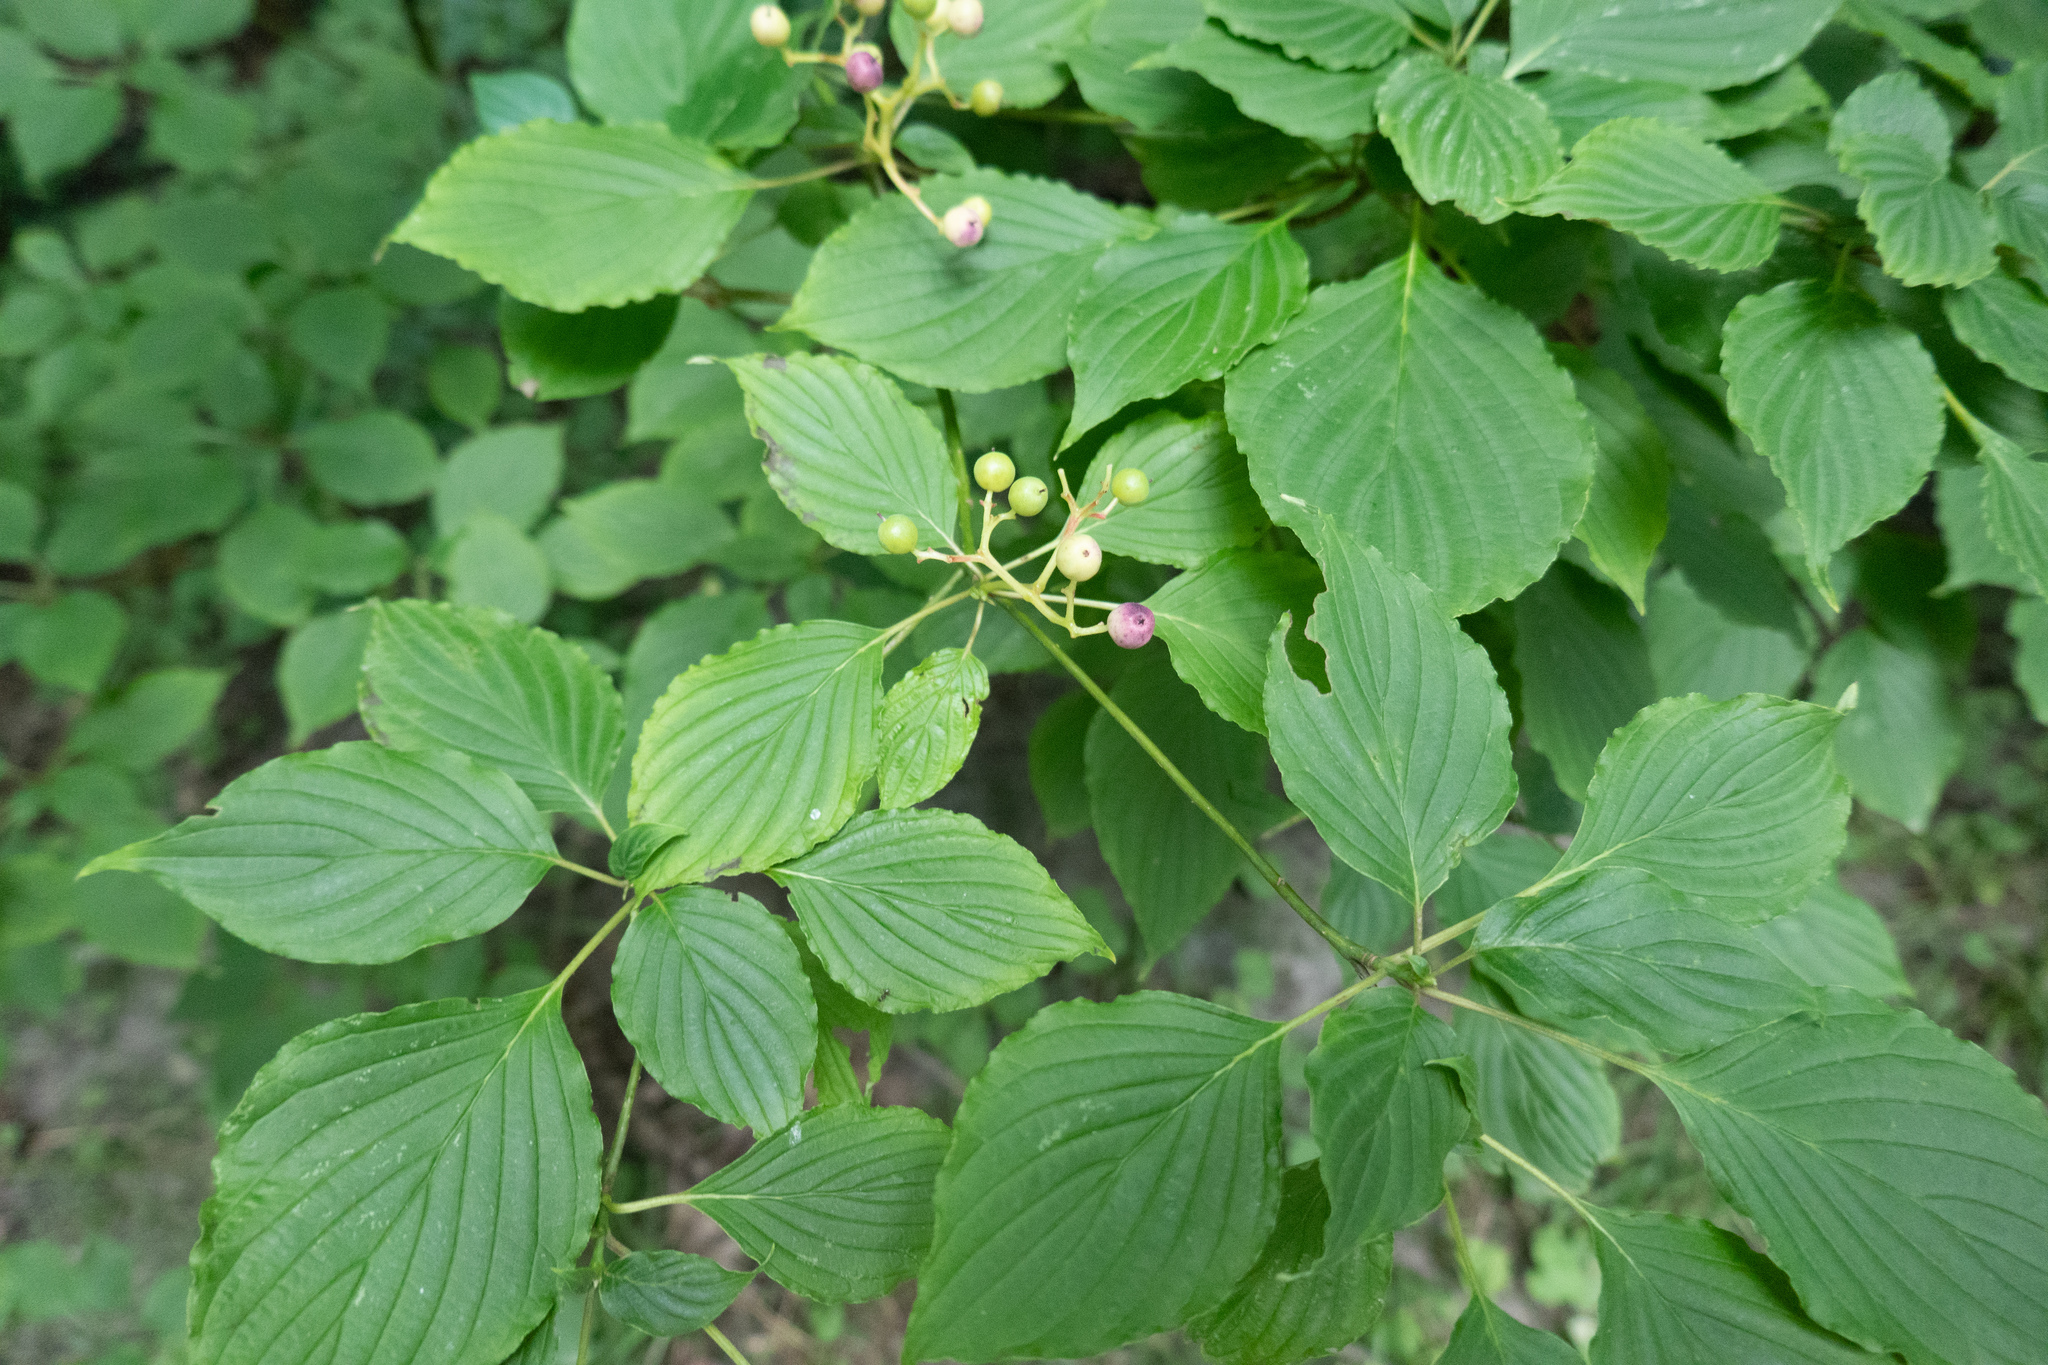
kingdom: Plantae
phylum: Tracheophyta
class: Magnoliopsida
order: Cornales
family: Cornaceae
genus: Cornus
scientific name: Cornus alternifolia
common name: Pagoda dogwood
